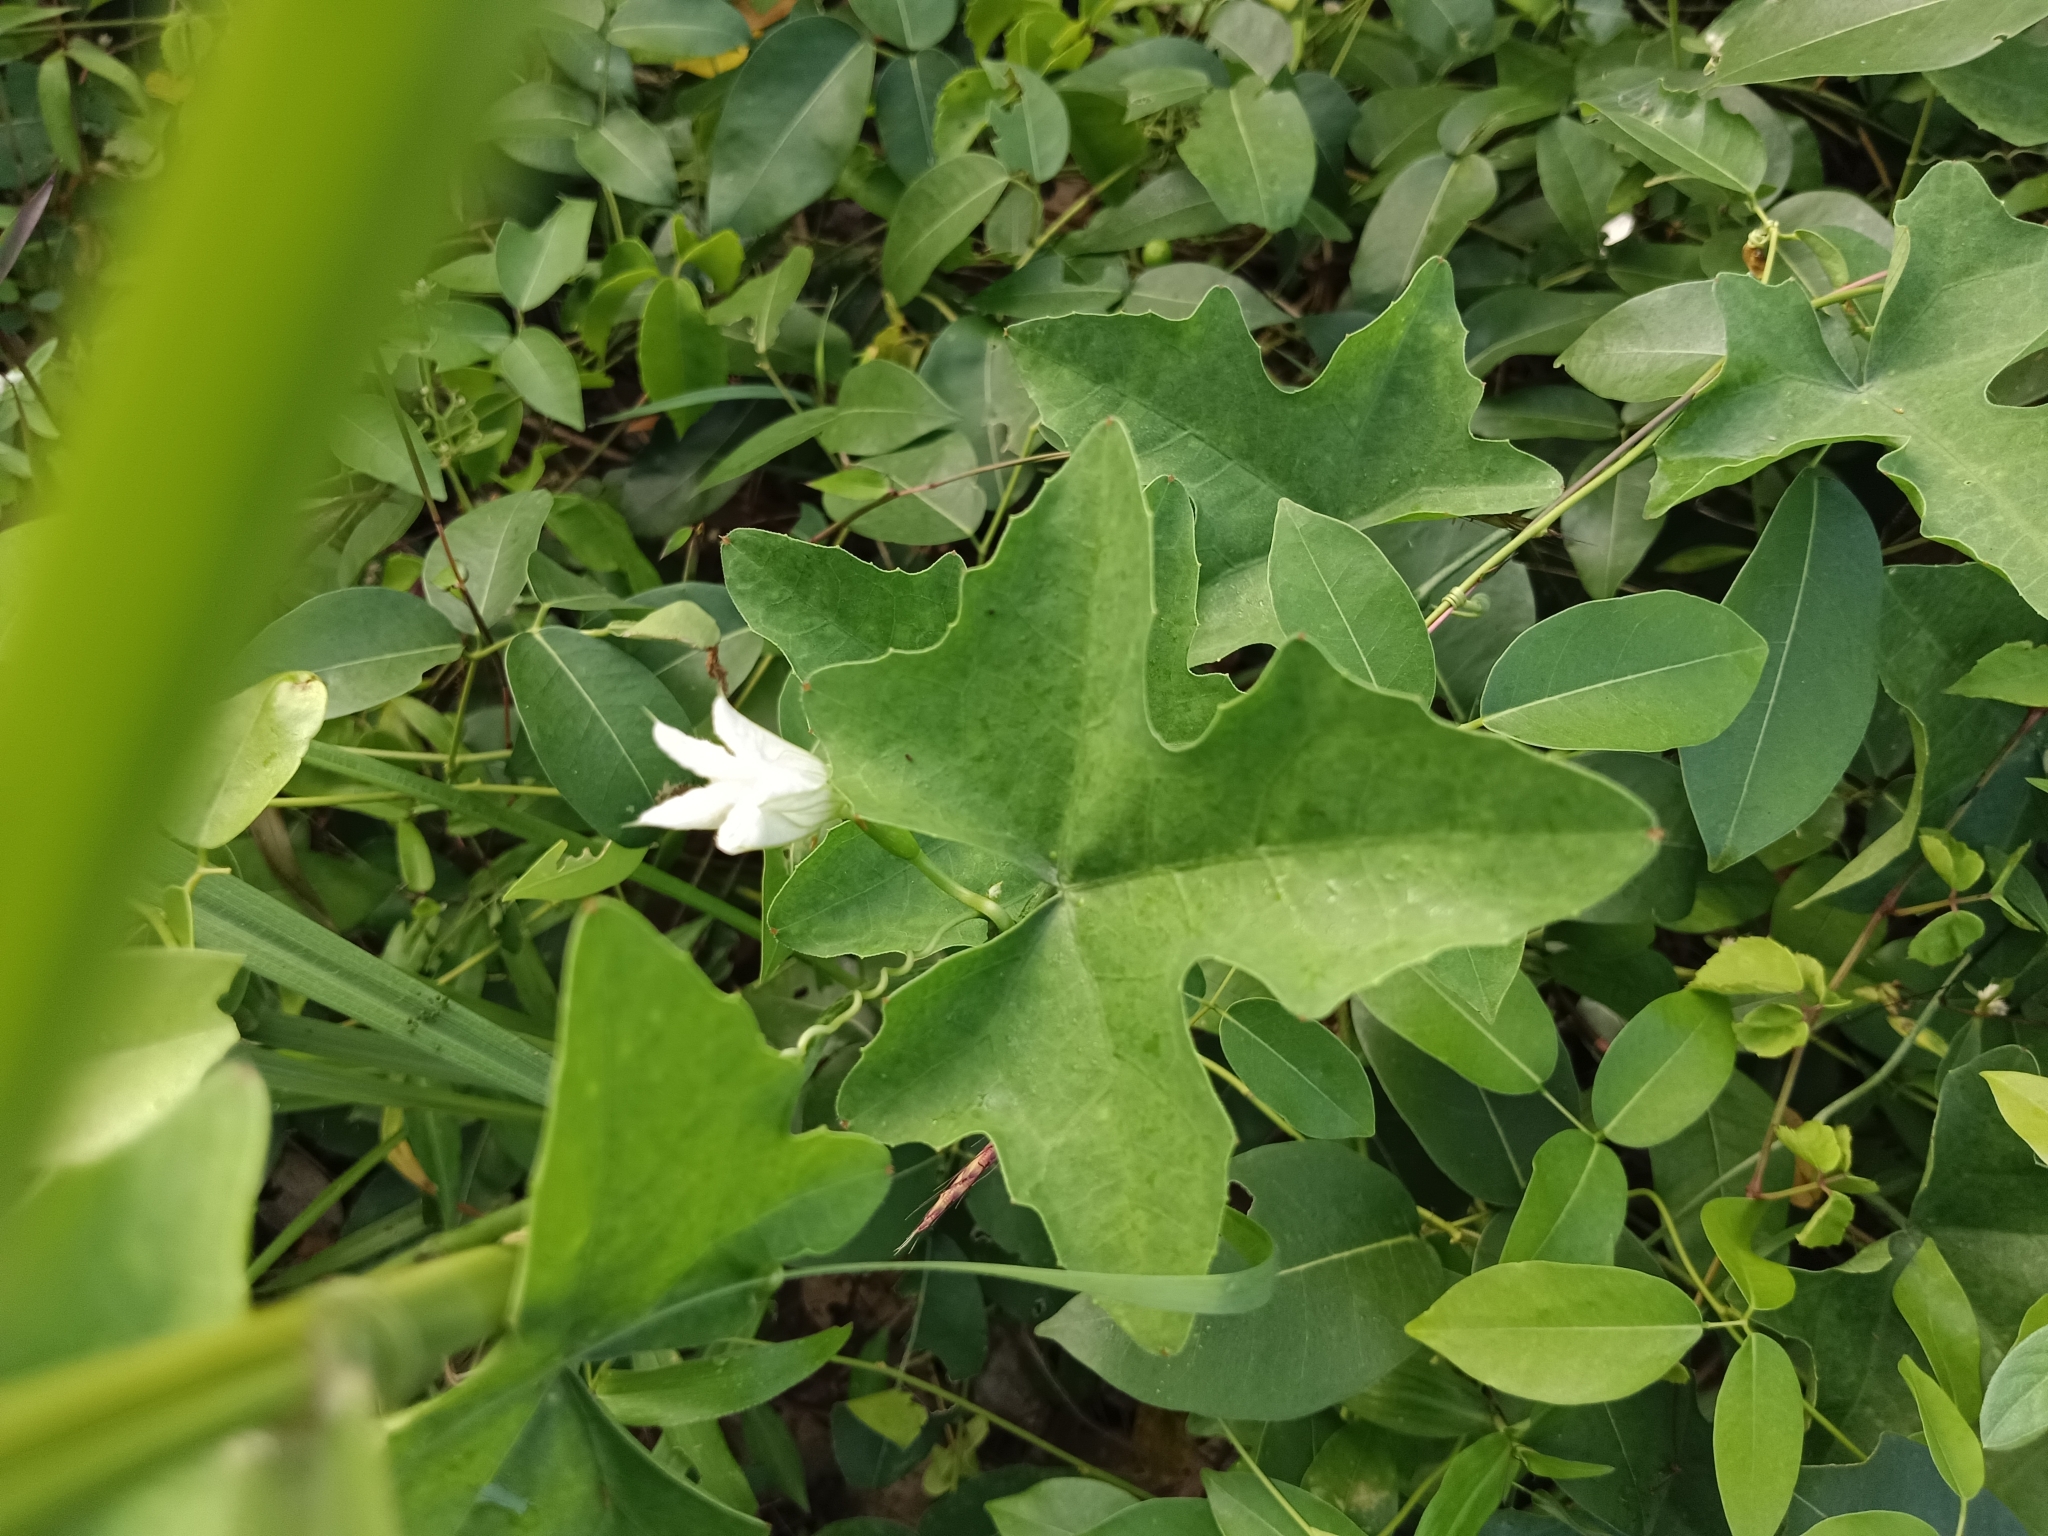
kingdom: Plantae
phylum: Tracheophyta
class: Magnoliopsida
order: Cucurbitales
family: Cucurbitaceae
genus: Coccinia
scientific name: Coccinia grandis
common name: Ivy gourd
